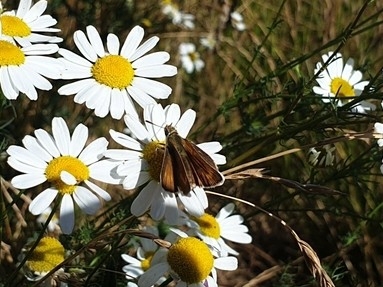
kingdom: Animalia
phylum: Arthropoda
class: Insecta
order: Lepidoptera
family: Hesperiidae
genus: Thymelicus
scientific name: Thymelicus acteon
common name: Lulworth skipper
